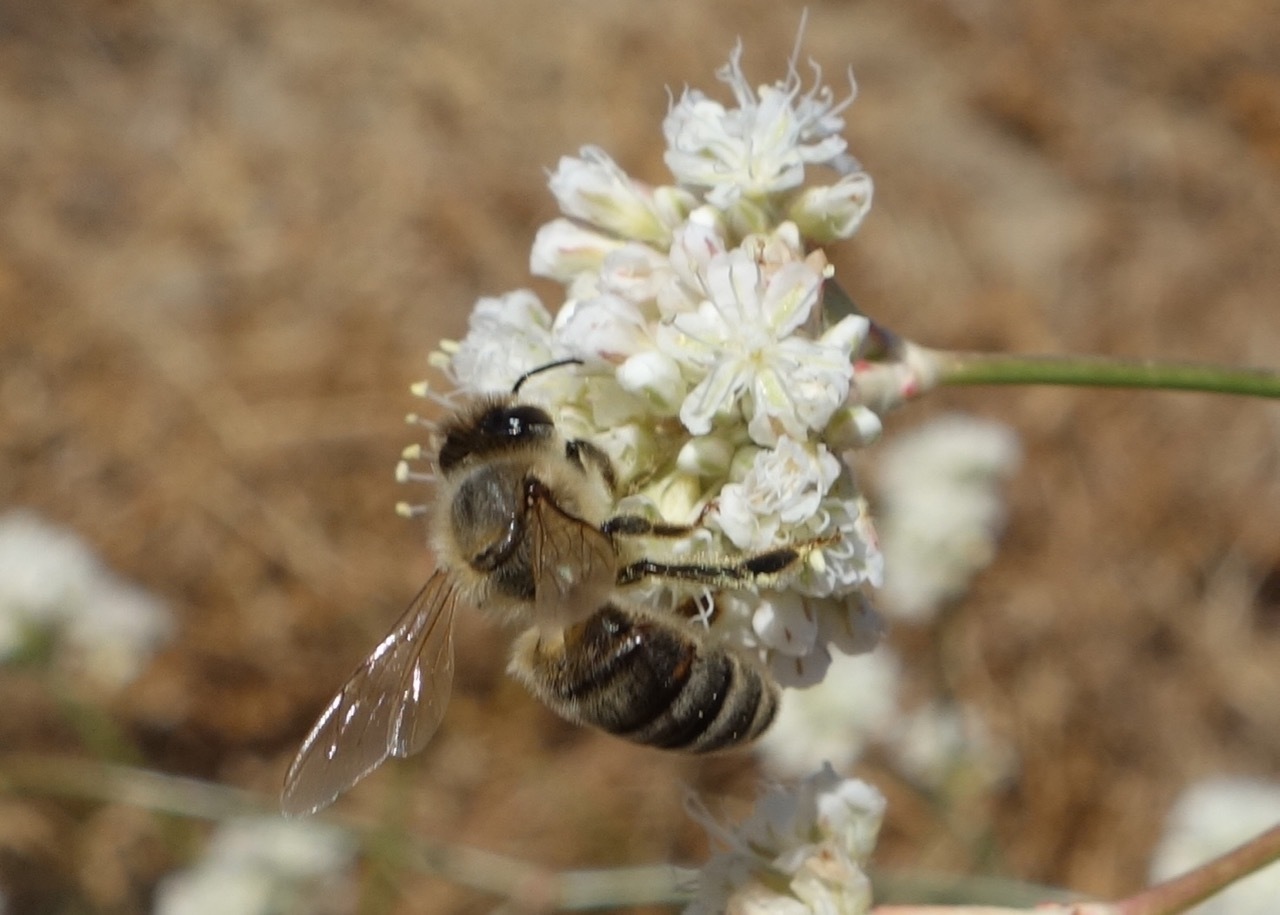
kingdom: Animalia
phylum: Arthropoda
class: Insecta
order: Hymenoptera
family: Apidae
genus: Apis
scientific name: Apis mellifera
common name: Honey bee
